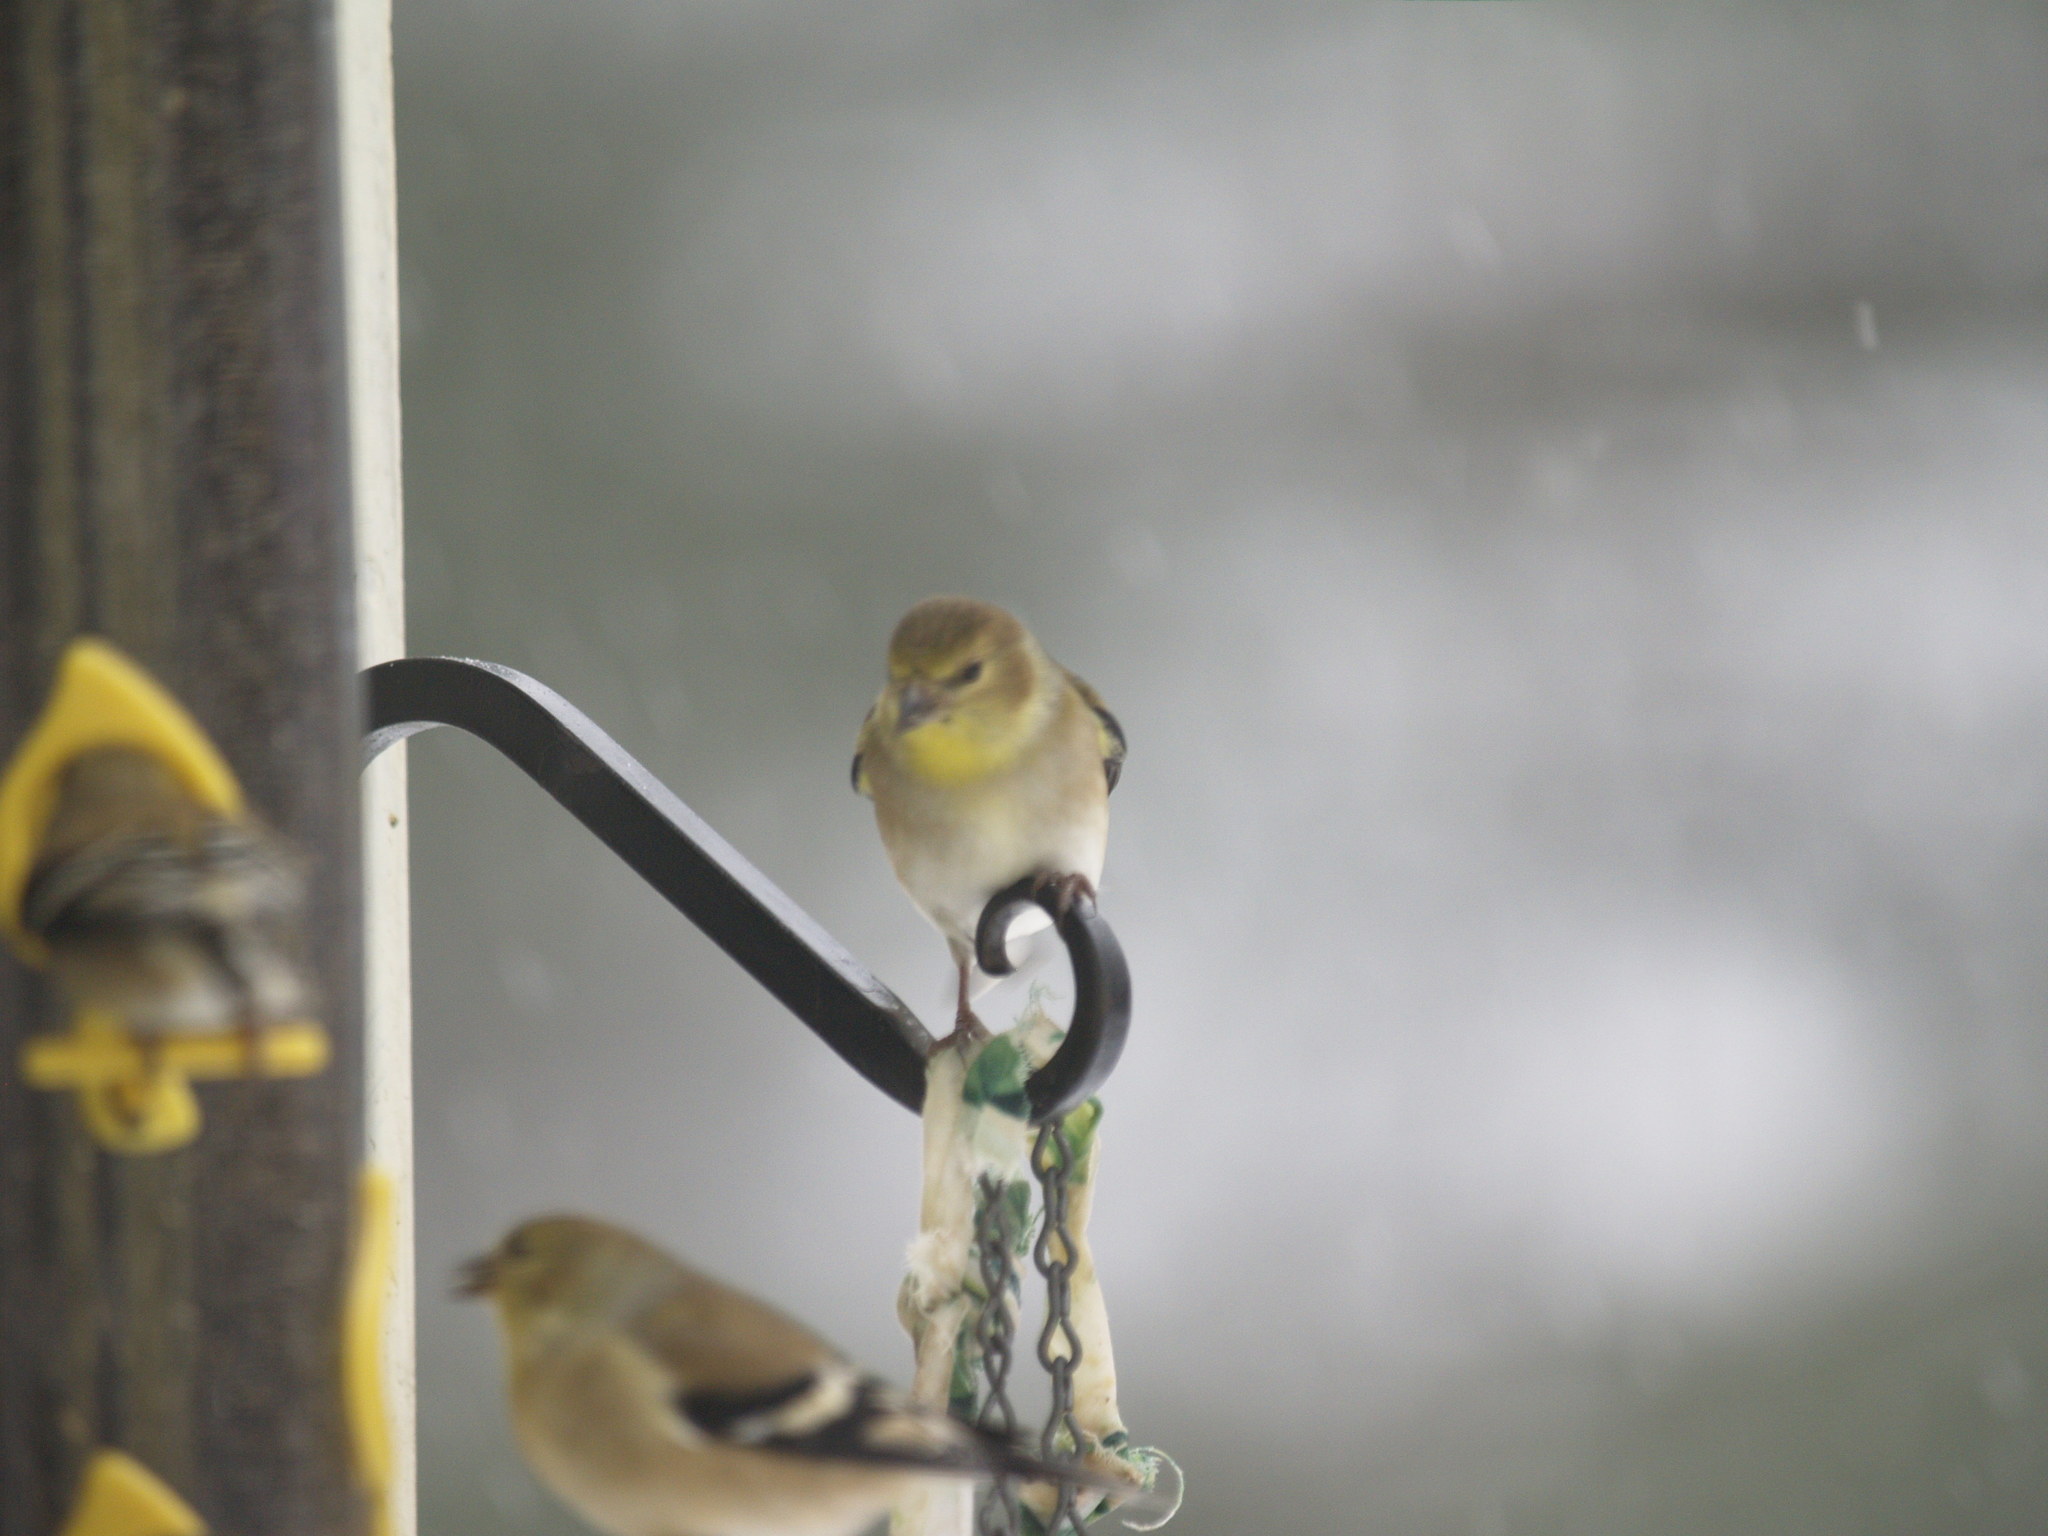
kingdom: Animalia
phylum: Chordata
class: Aves
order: Passeriformes
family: Fringillidae
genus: Spinus
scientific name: Spinus tristis
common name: American goldfinch
